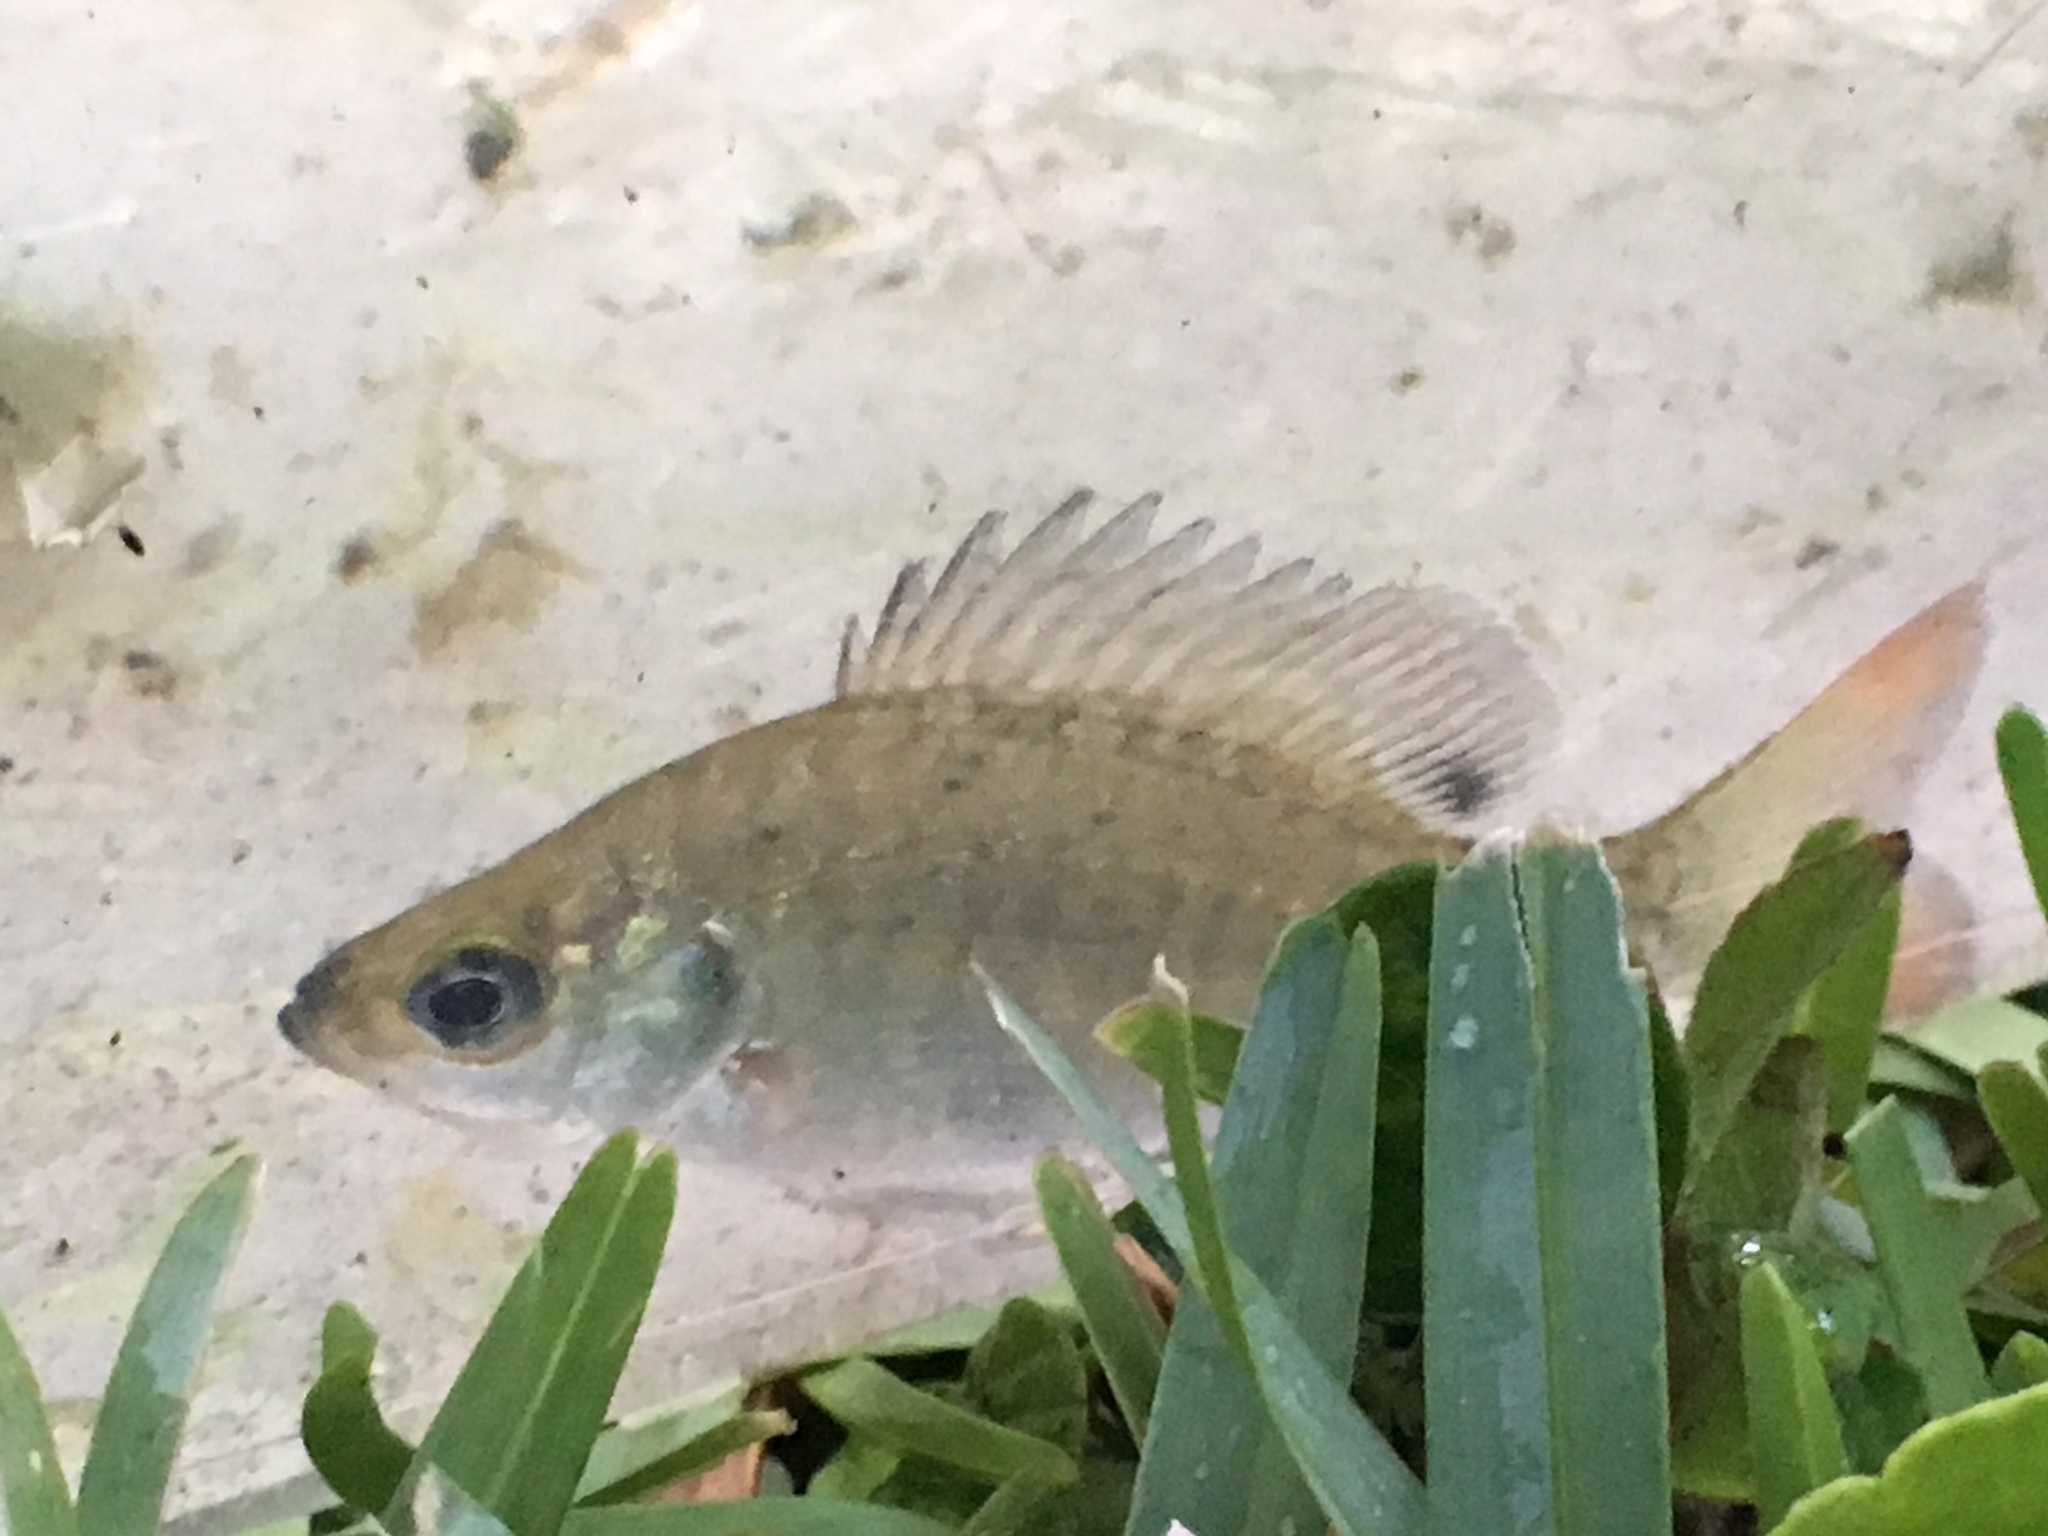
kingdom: Animalia
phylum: Chordata
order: Perciformes
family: Centrarchidae
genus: Lepomis
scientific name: Lepomis macrochirus
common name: Bluegill
